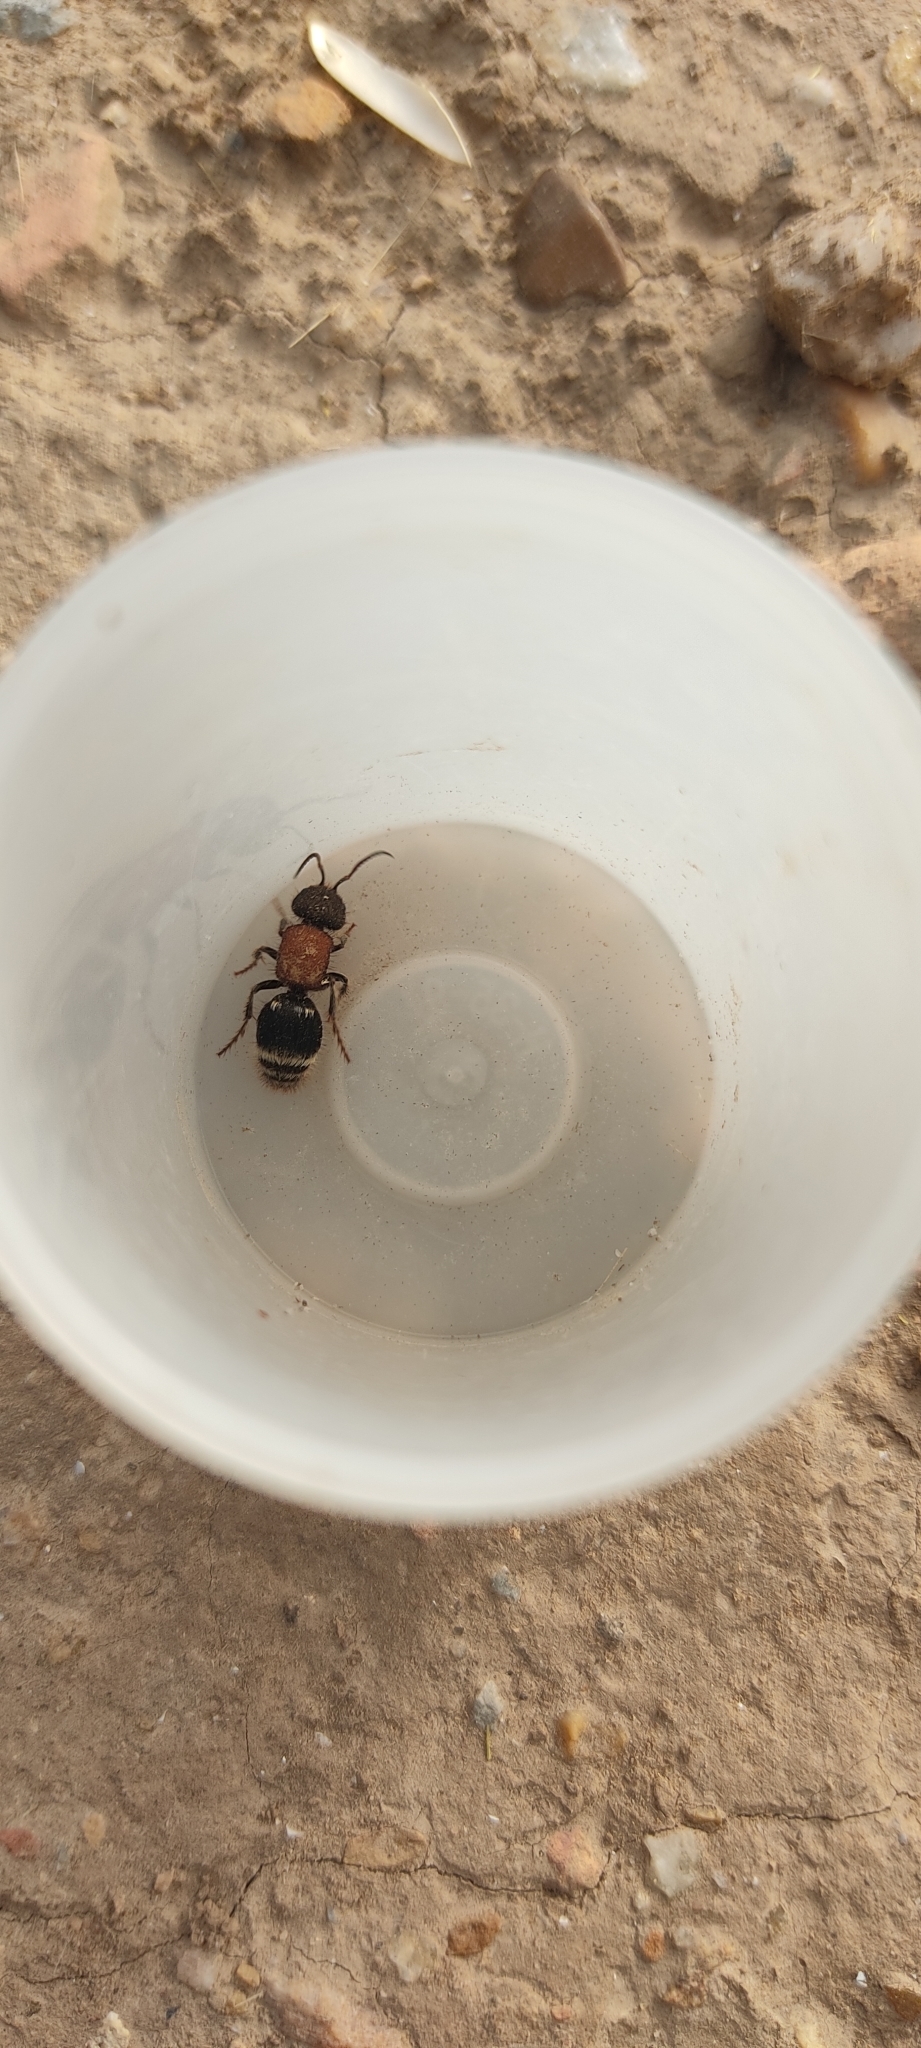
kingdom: Animalia
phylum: Arthropoda
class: Insecta
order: Hymenoptera
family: Mutillidae
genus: Tropidotilla
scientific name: Tropidotilla litoralis
